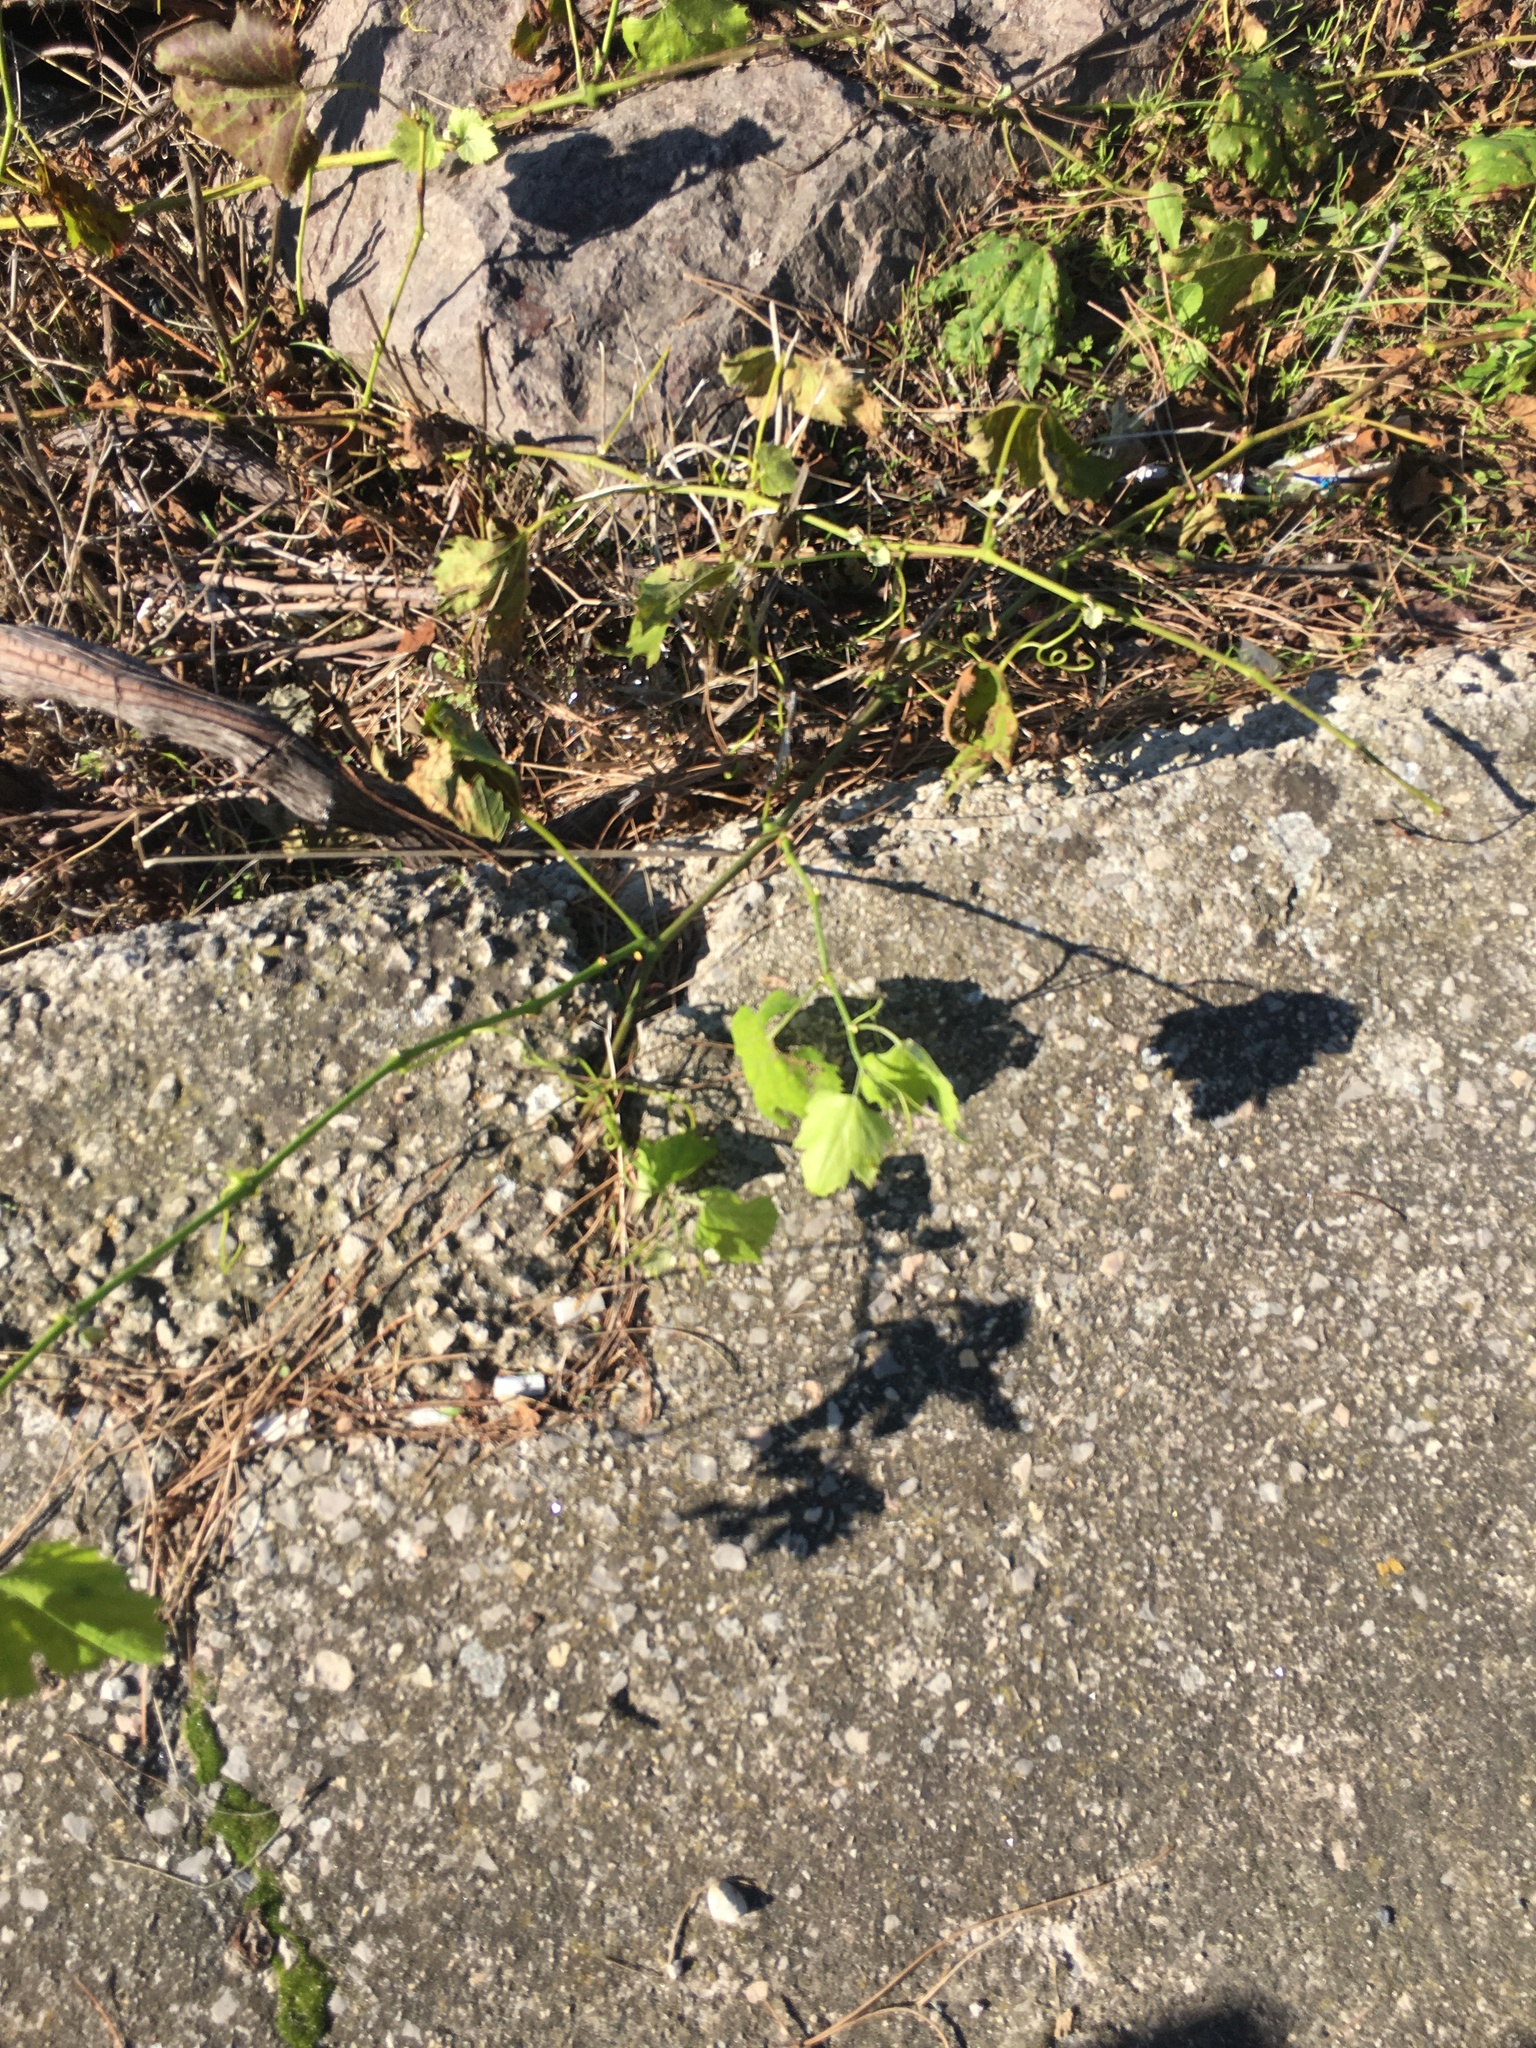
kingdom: Plantae
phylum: Tracheophyta
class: Magnoliopsida
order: Vitales
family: Vitaceae
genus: Vitis
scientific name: Vitis vinifera
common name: Grape-vine
